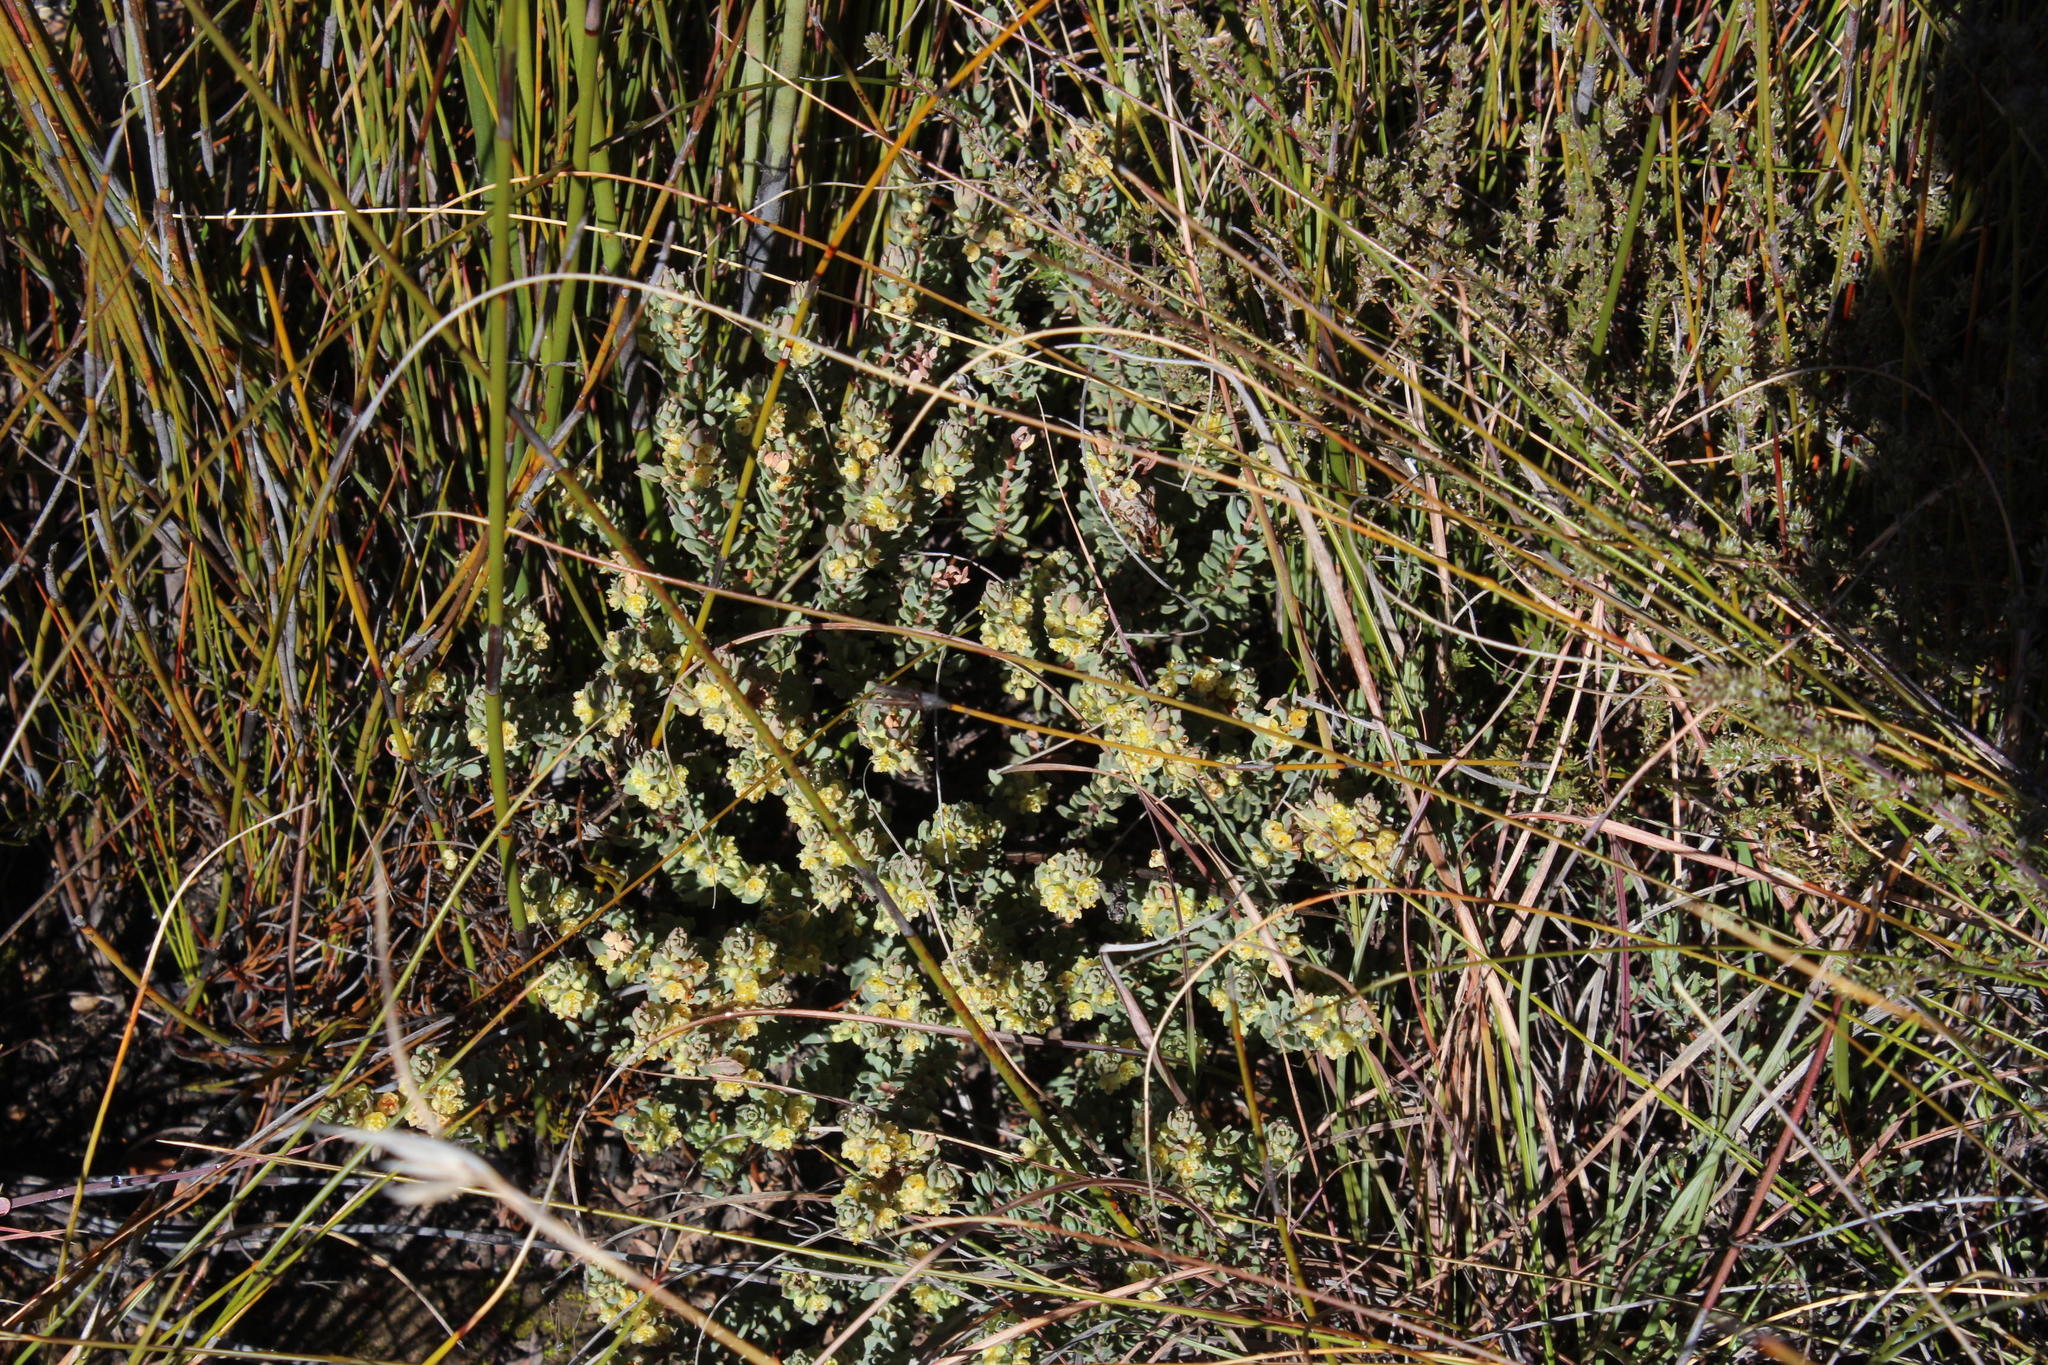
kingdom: Plantae
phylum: Tracheophyta
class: Magnoliopsida
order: Malpighiales
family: Peraceae
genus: Clutia
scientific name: Clutia laxa
